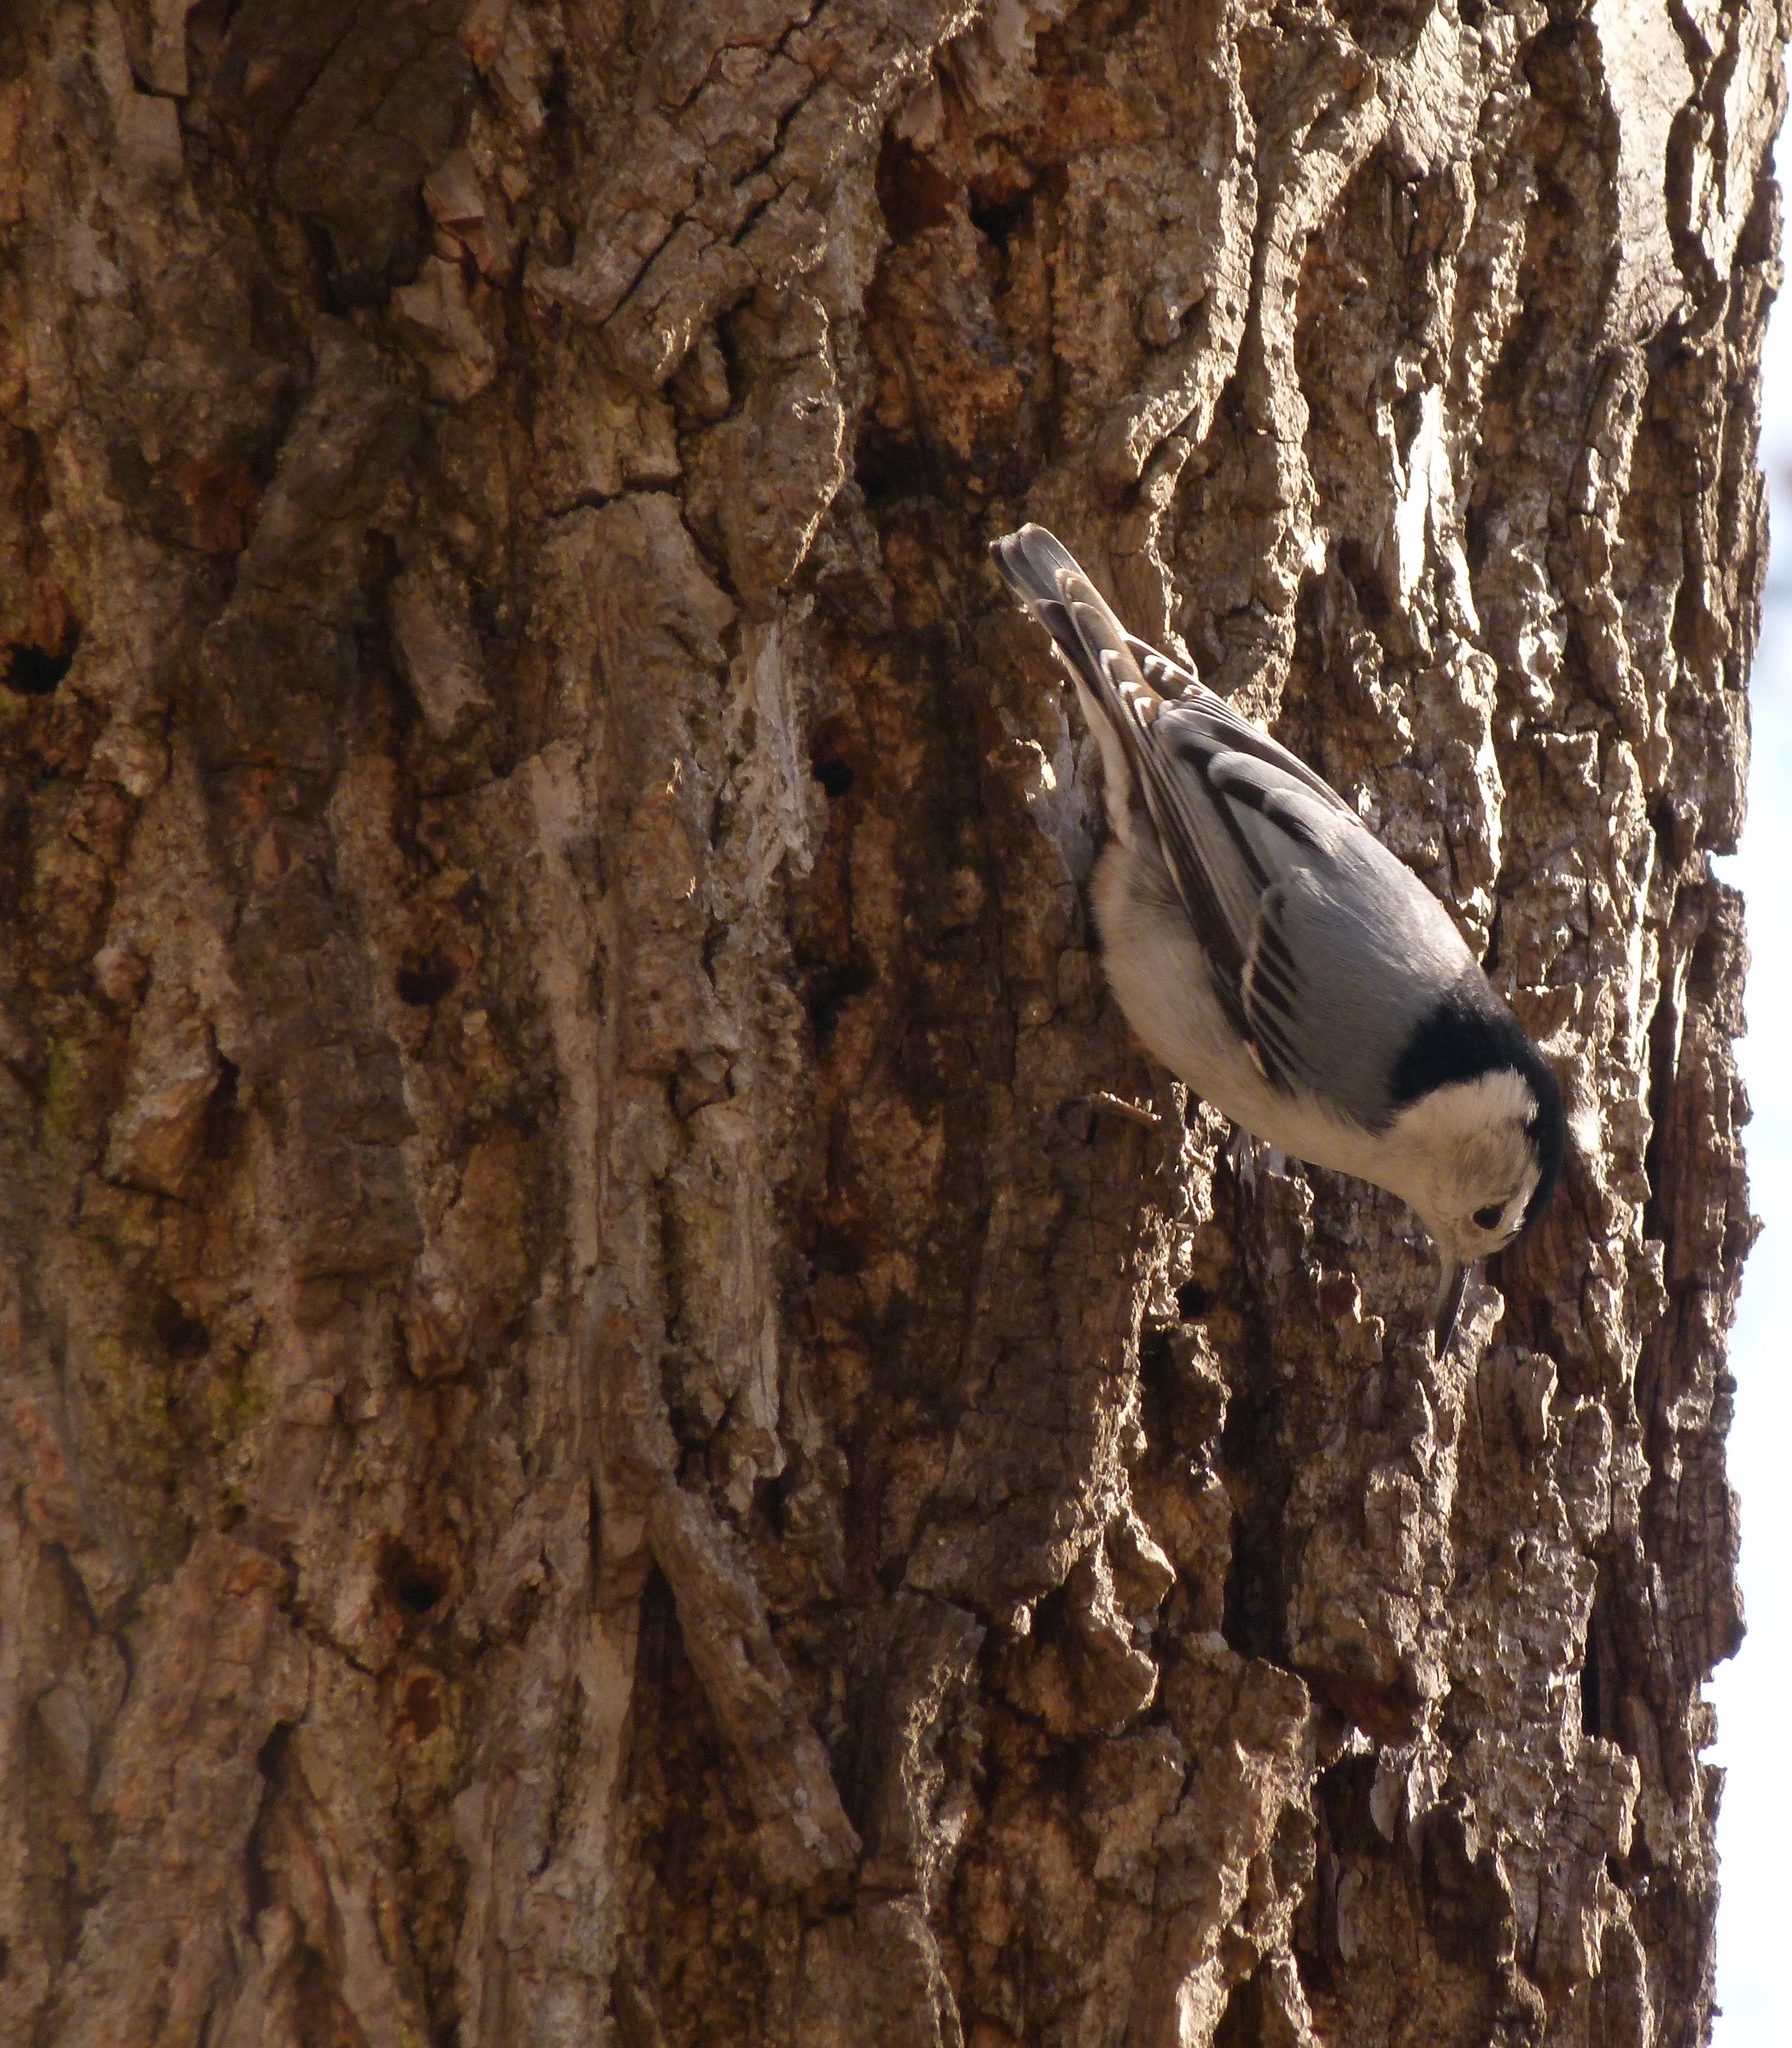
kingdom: Animalia
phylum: Chordata
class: Aves
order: Passeriformes
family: Sittidae
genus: Sitta
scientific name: Sitta carolinensis
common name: White-breasted nuthatch
